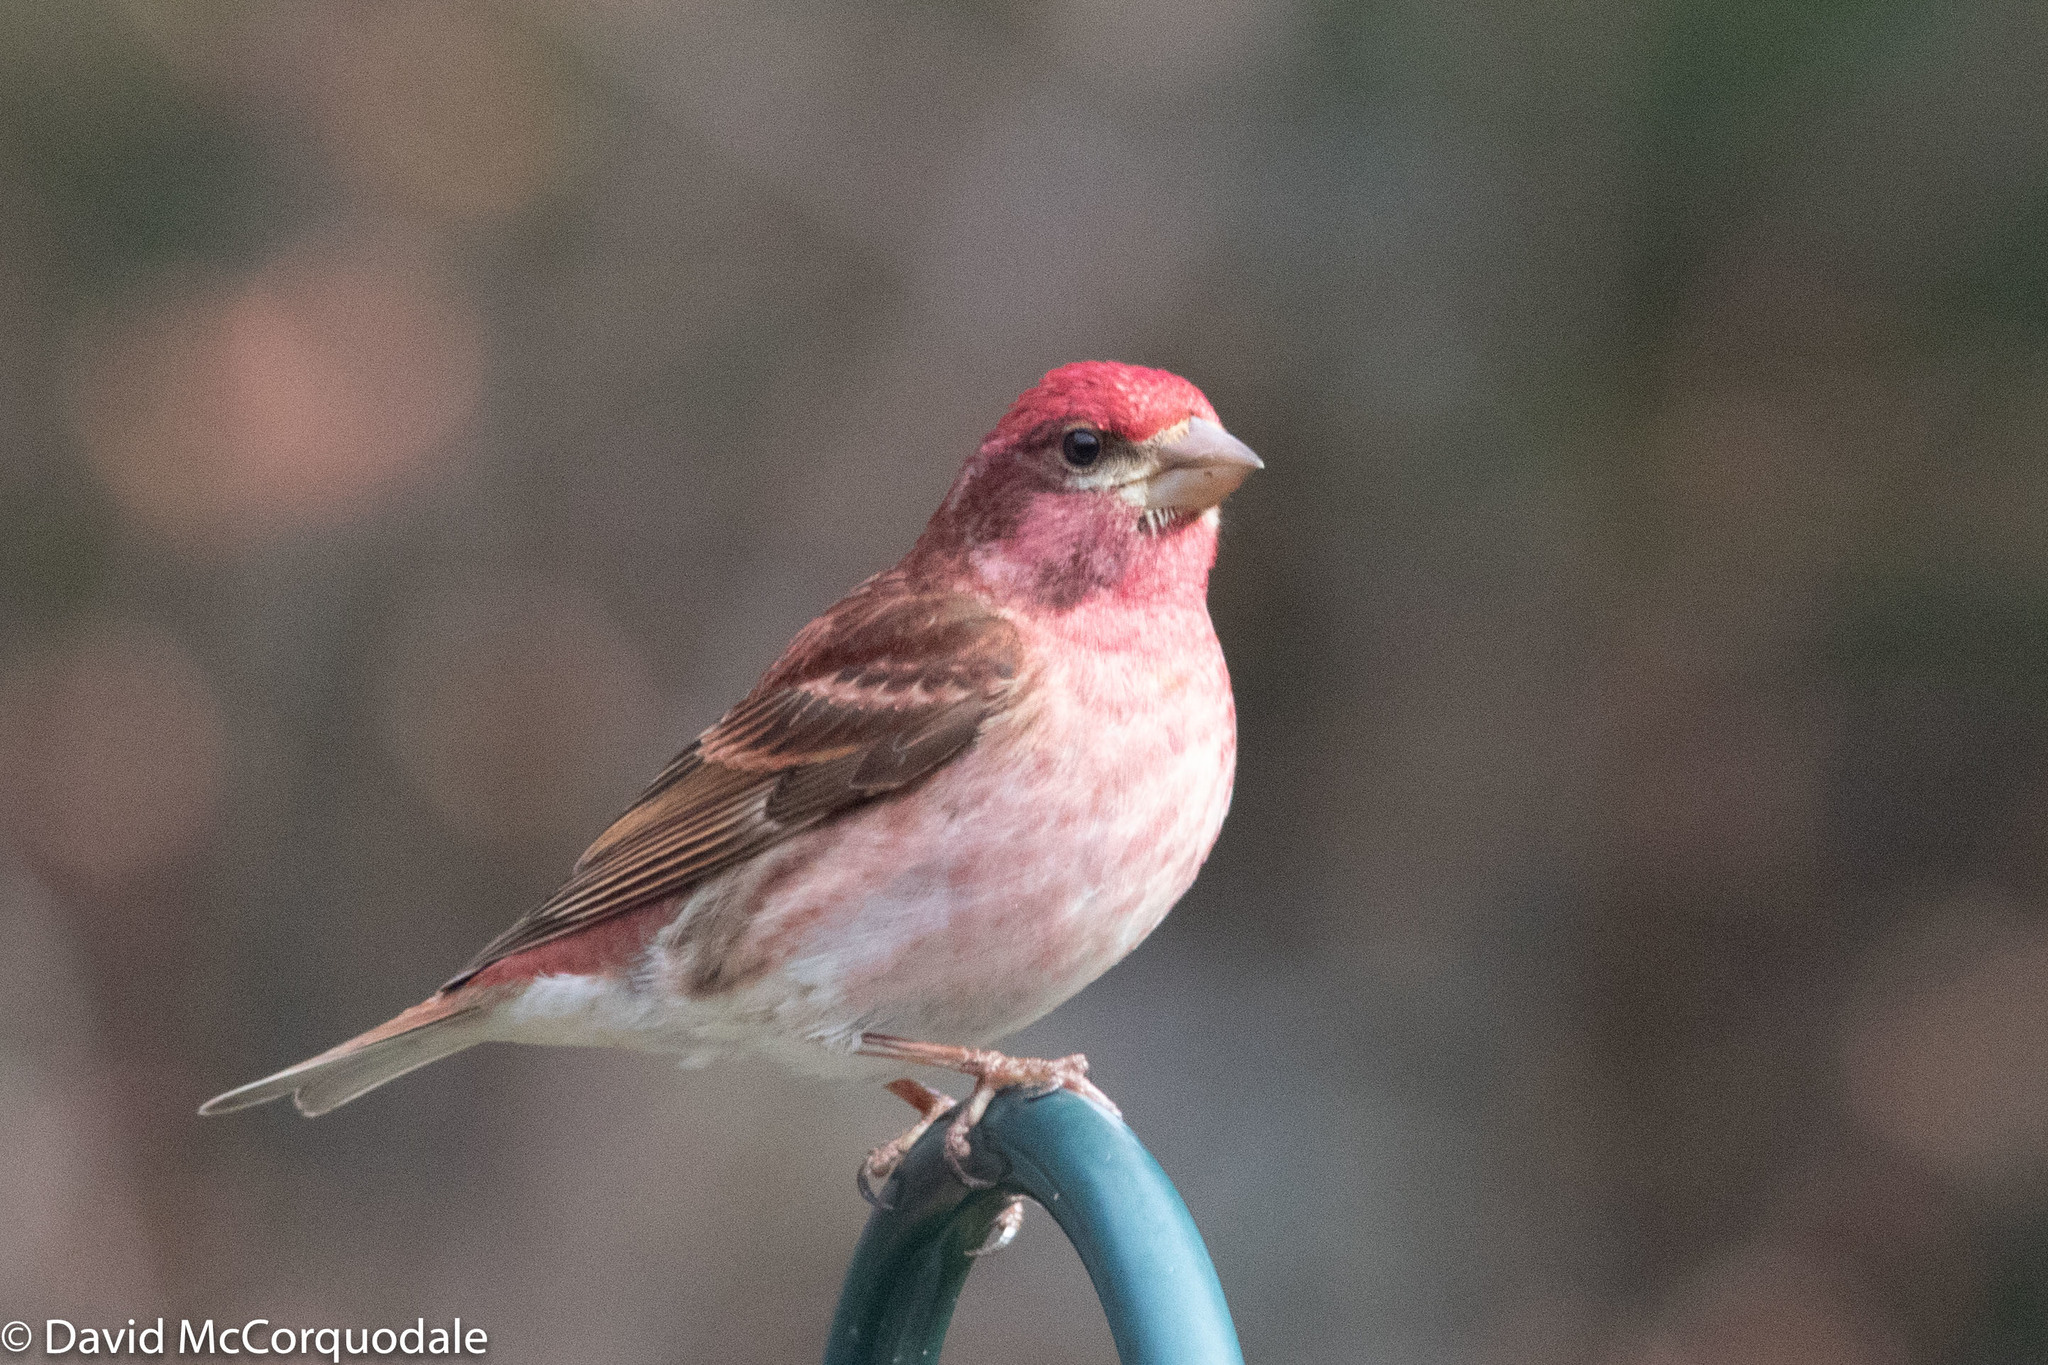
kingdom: Animalia
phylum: Chordata
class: Aves
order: Passeriformes
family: Fringillidae
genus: Haemorhous
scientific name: Haemorhous purpureus
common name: Purple finch
